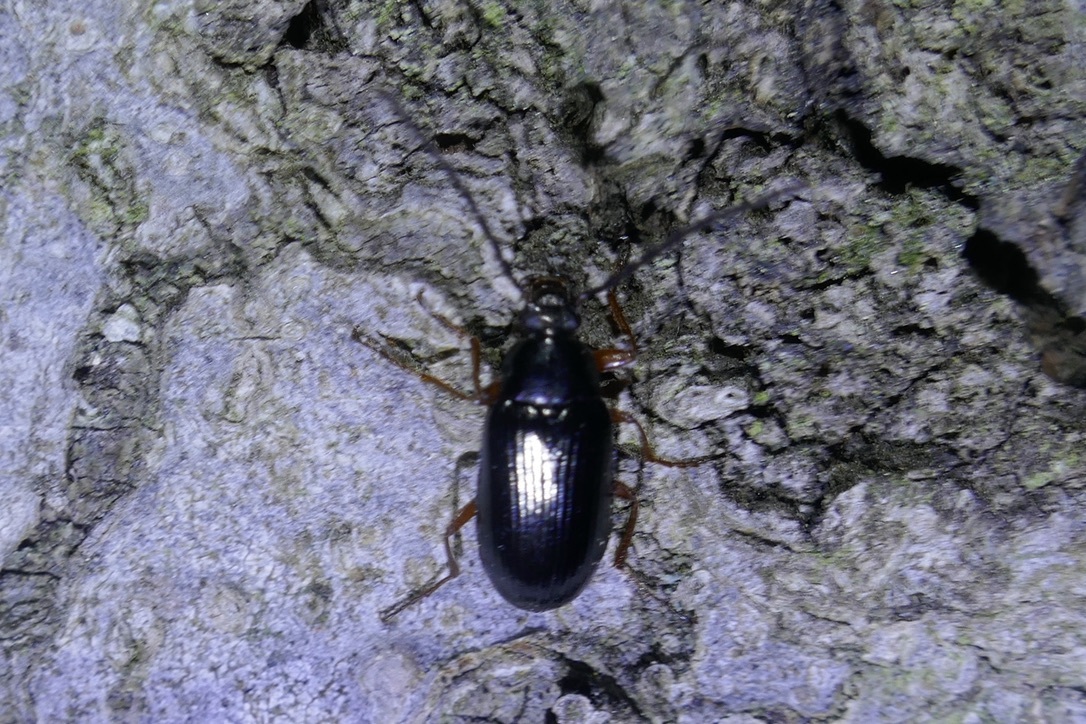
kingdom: Animalia
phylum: Arthropoda
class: Insecta
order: Coleoptera
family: Tenebrionidae
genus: Gonodera
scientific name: Gonodera luperus
